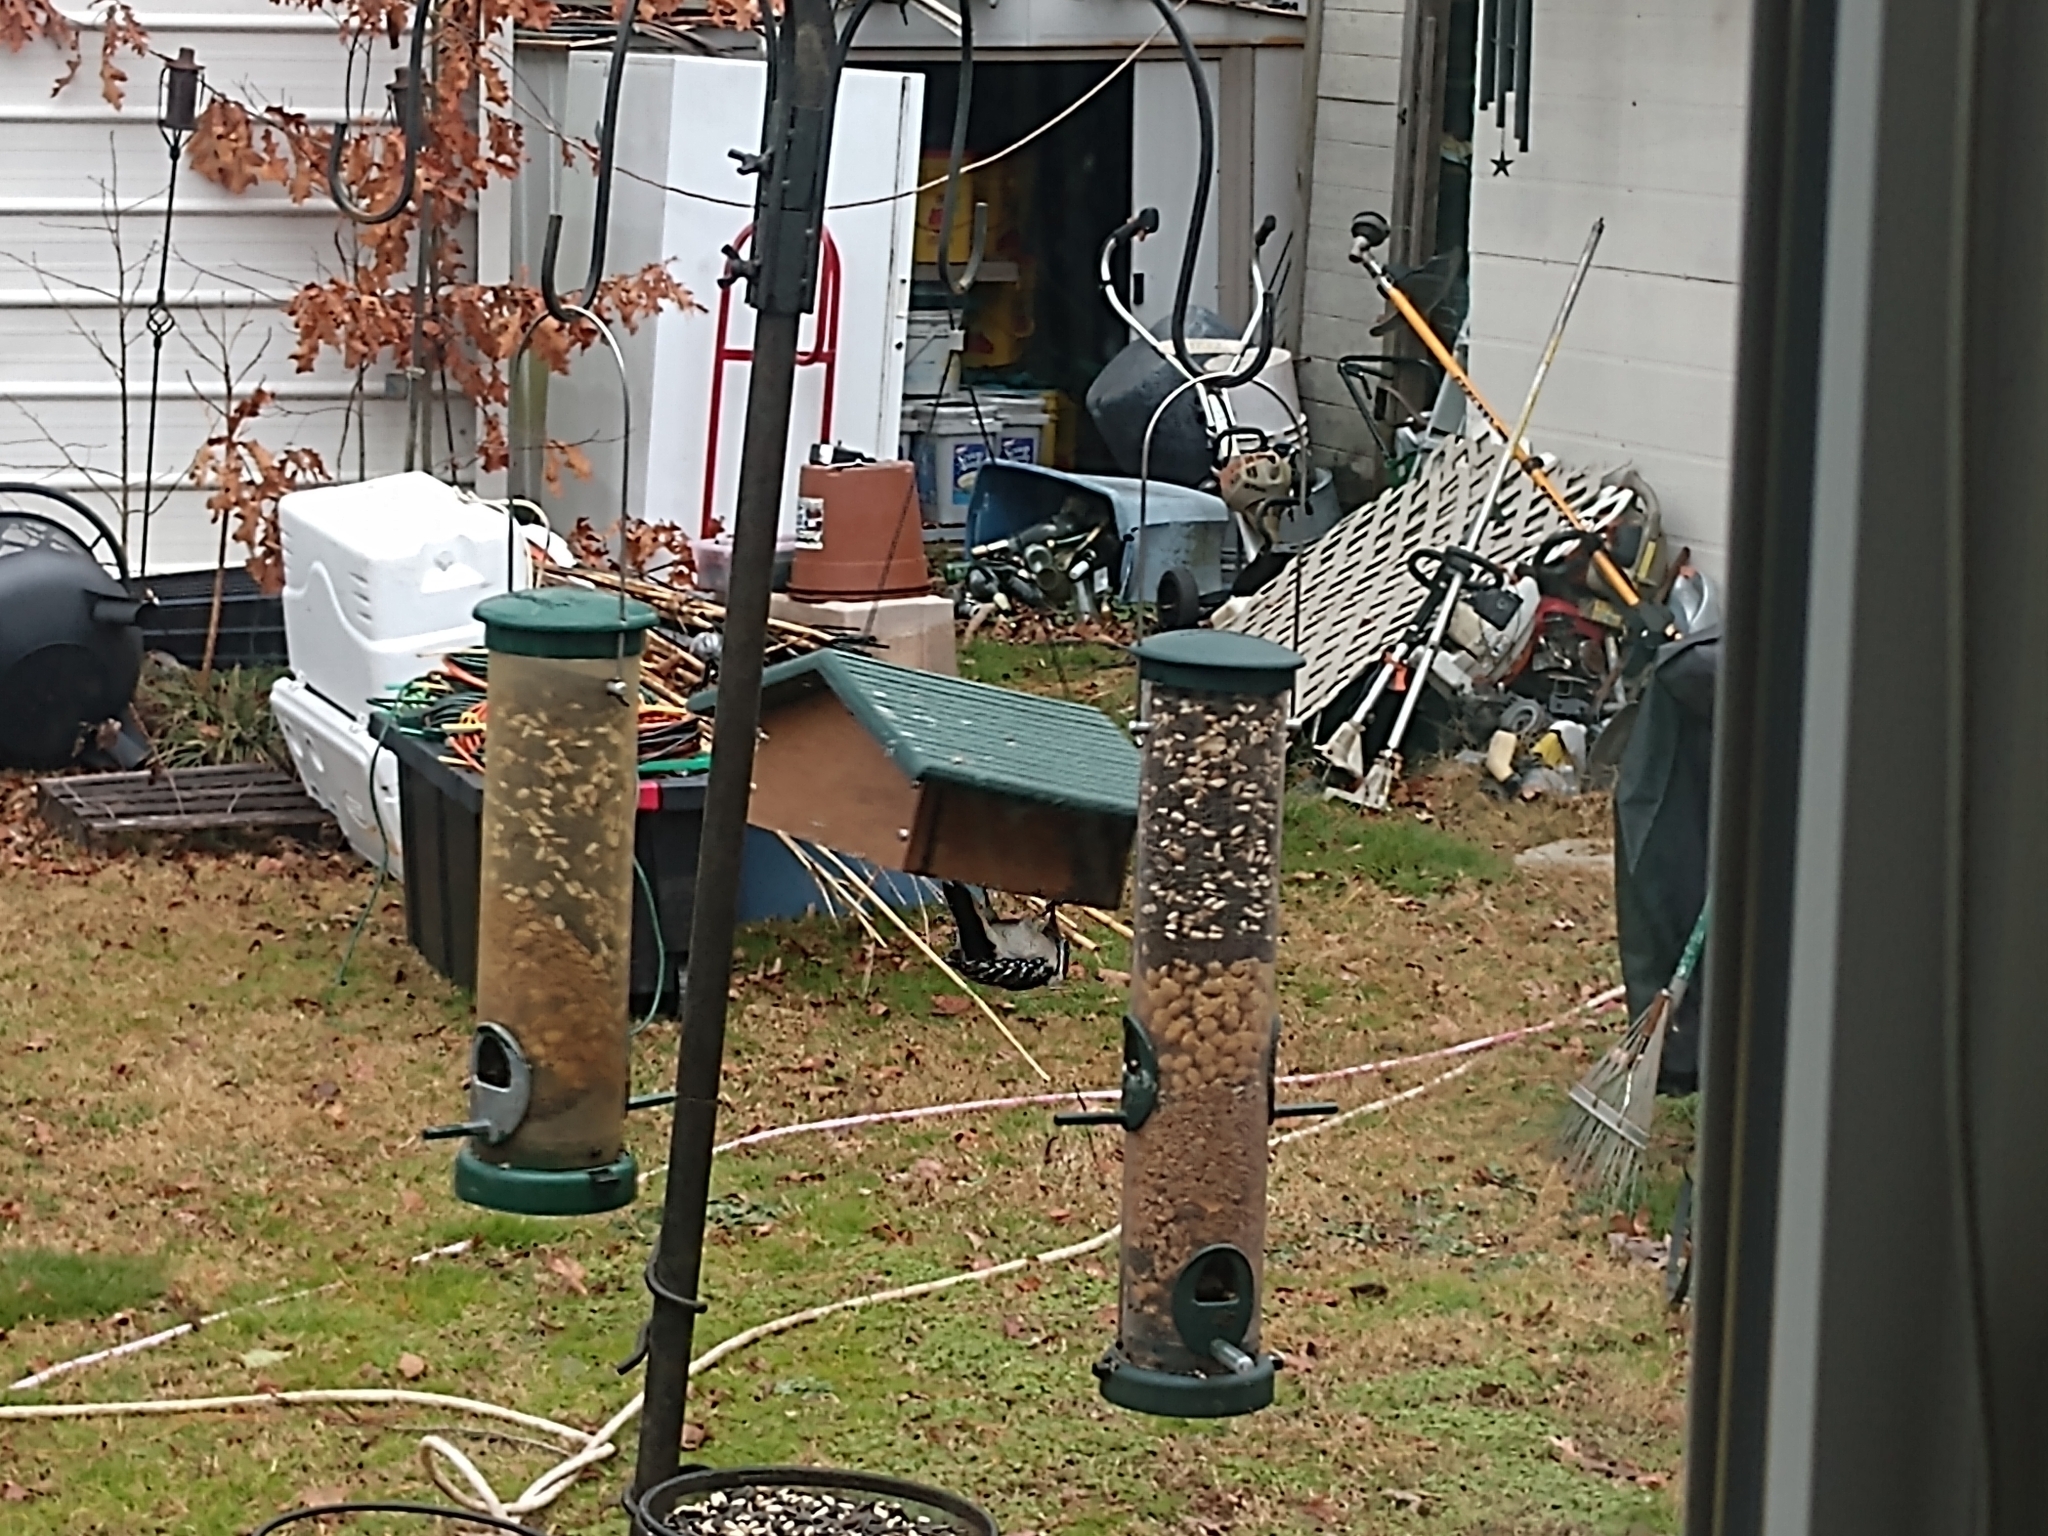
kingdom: Animalia
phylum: Chordata
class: Aves
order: Piciformes
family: Picidae
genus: Dryobates
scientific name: Dryobates pubescens
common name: Downy woodpecker
